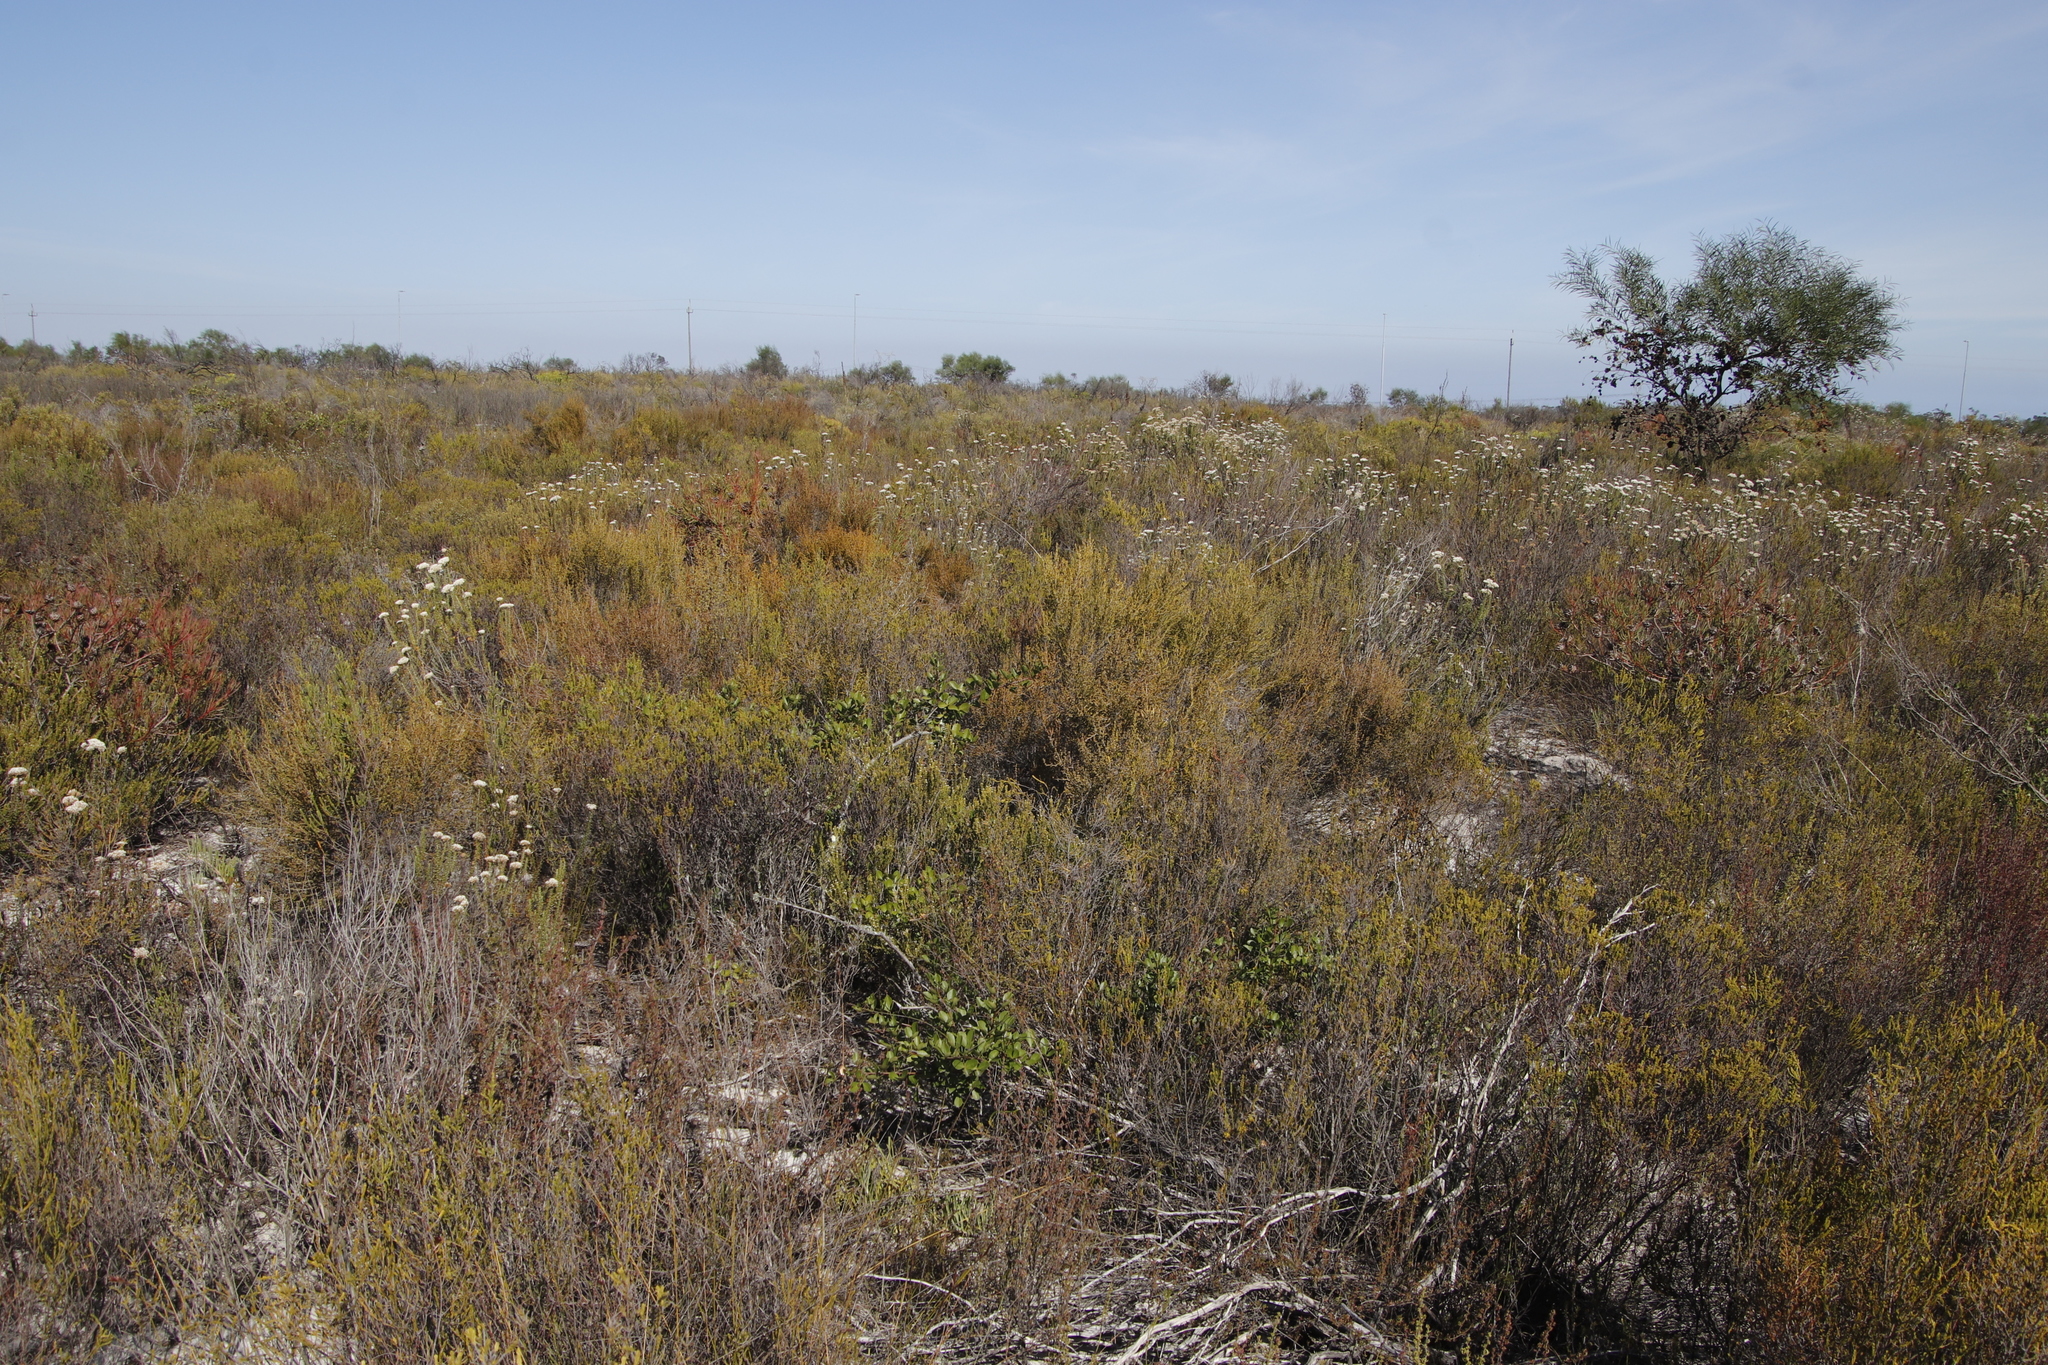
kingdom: Plantae
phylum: Tracheophyta
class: Magnoliopsida
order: Ericales
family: Ericaceae
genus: Erica
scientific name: Erica muscosa
